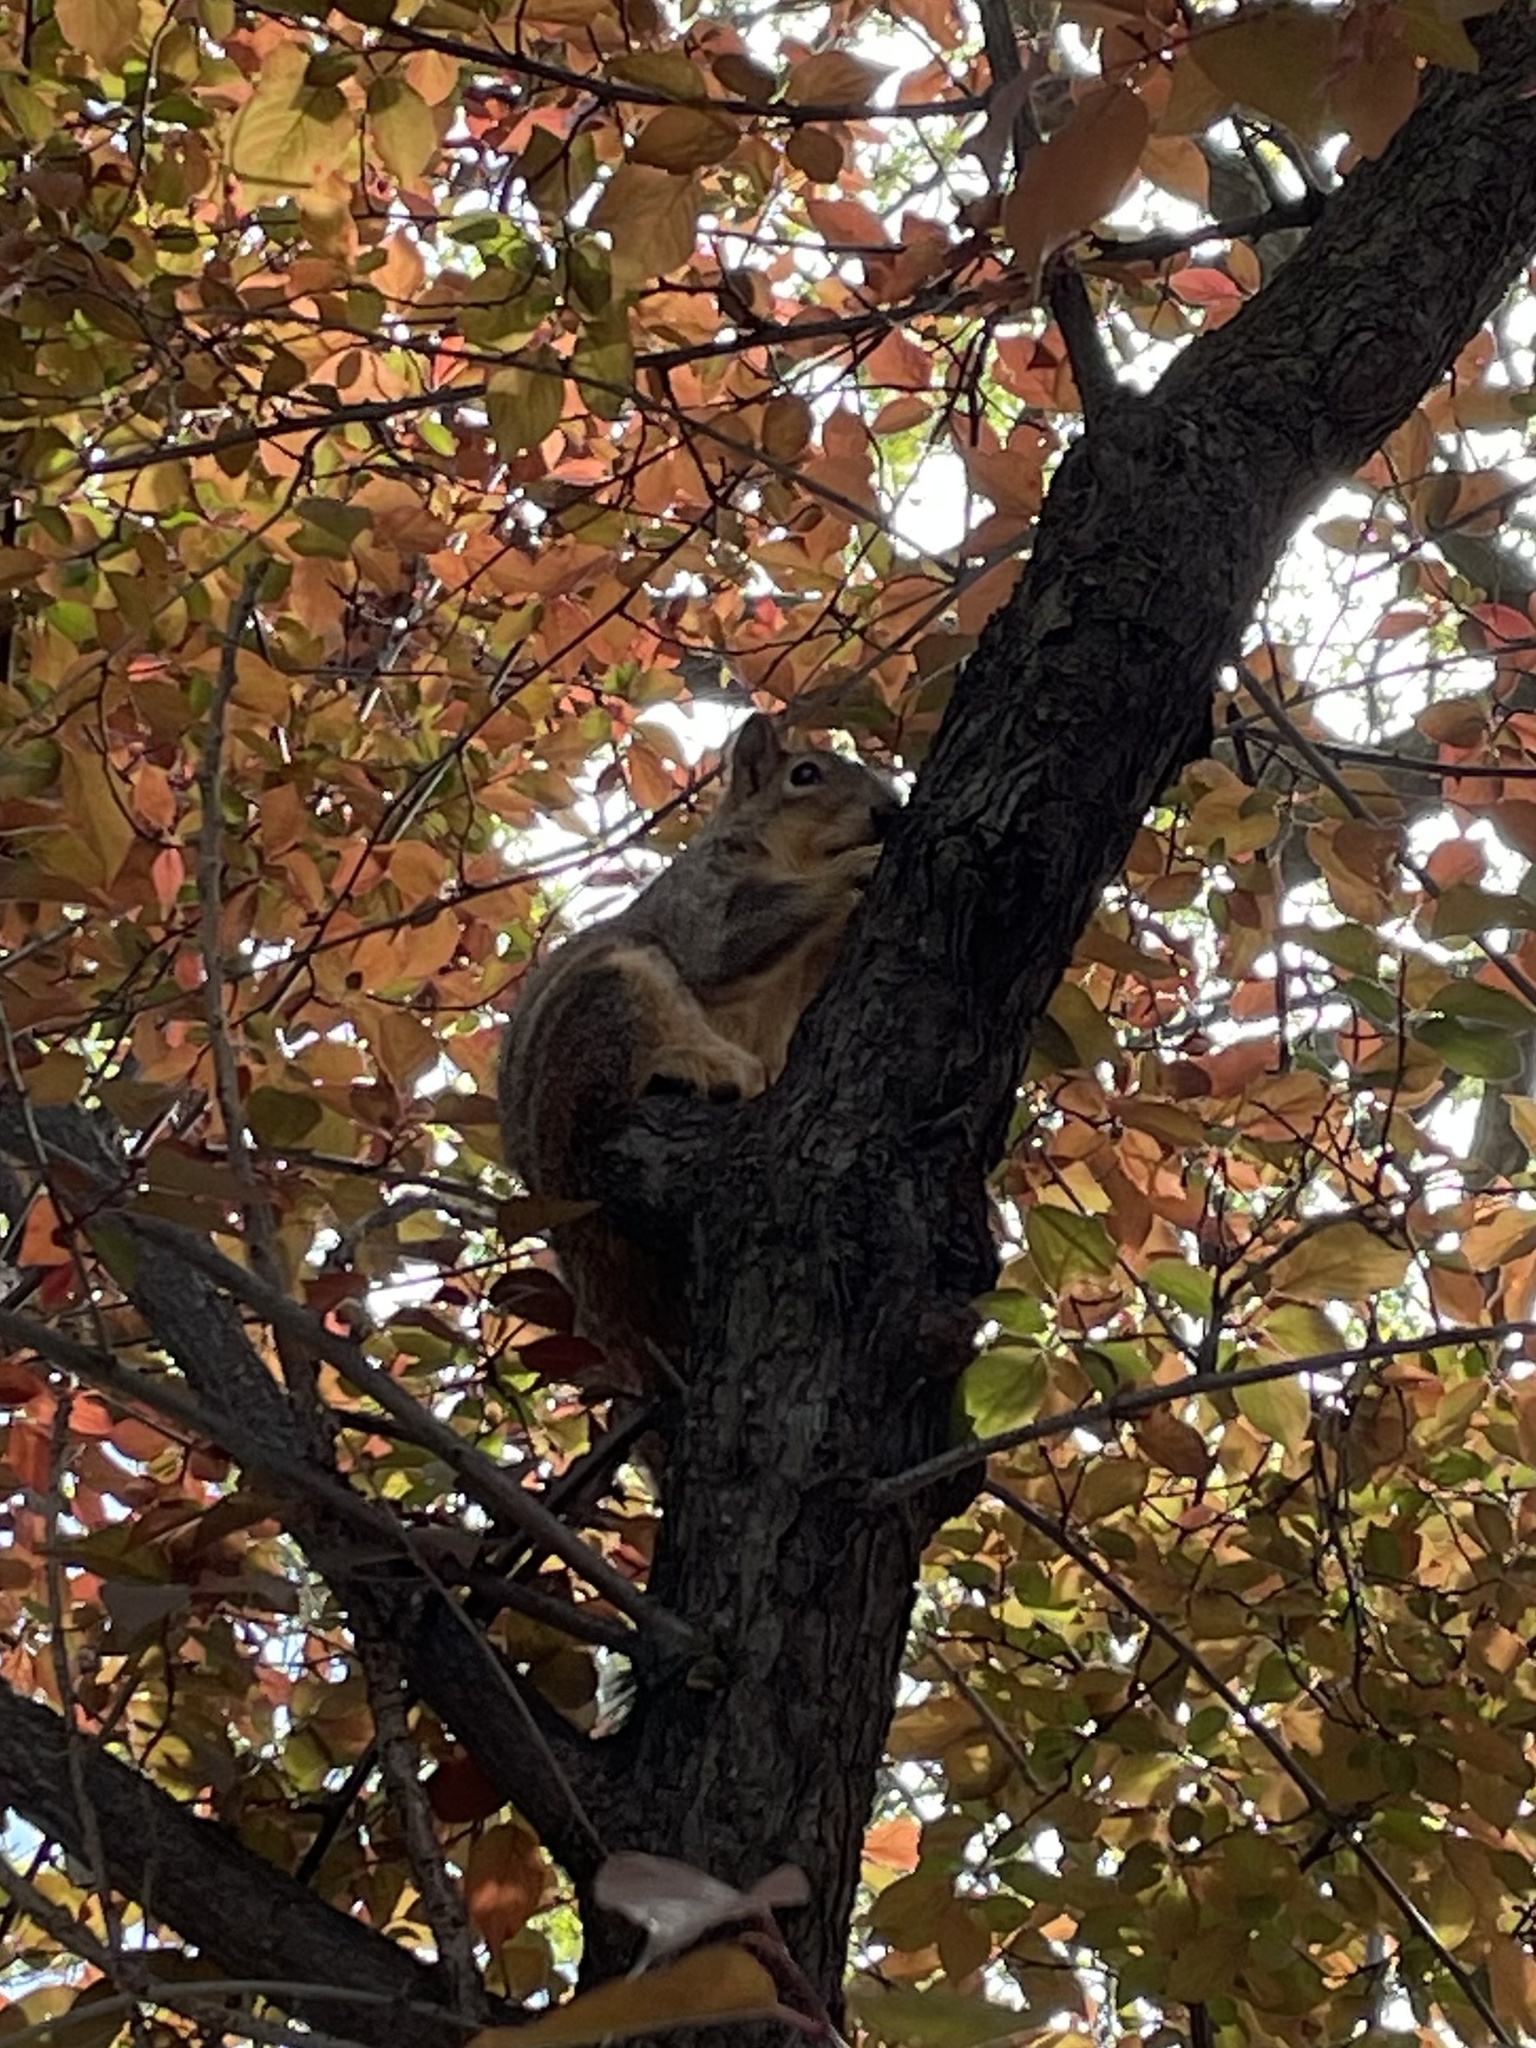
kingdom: Animalia
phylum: Chordata
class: Mammalia
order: Rodentia
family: Sciuridae
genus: Sciurus
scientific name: Sciurus niger
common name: Fox squirrel
